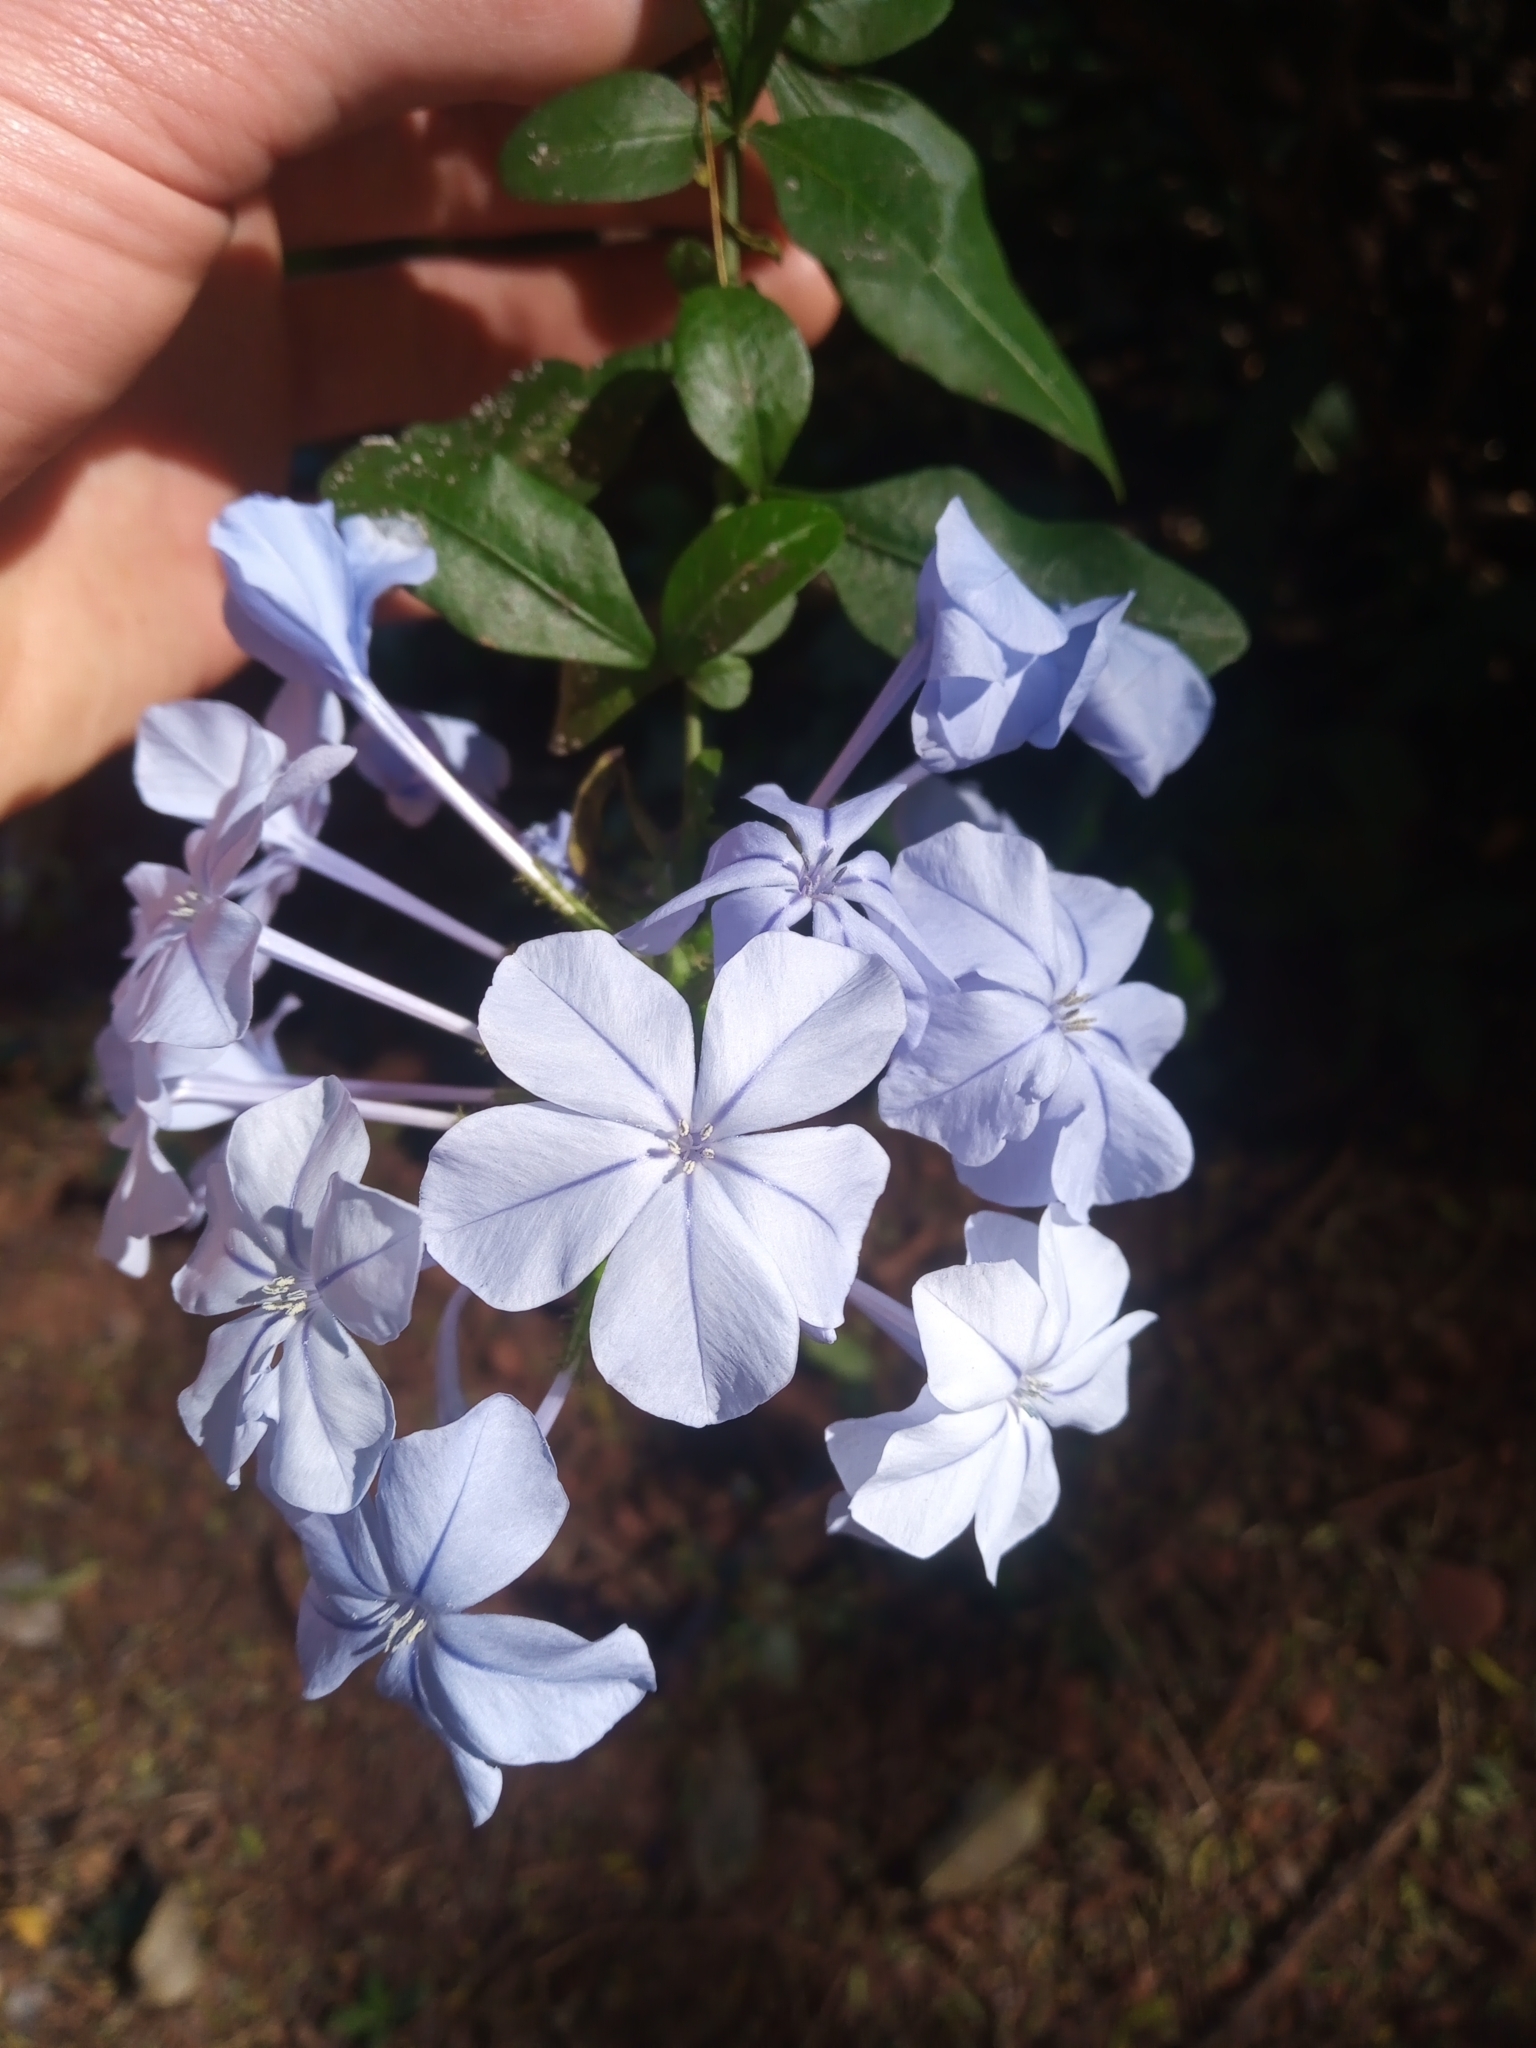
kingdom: Plantae
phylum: Tracheophyta
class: Magnoliopsida
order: Caryophyllales
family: Plumbaginaceae
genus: Plumbago
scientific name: Plumbago auriculata
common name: Cape leadwort
